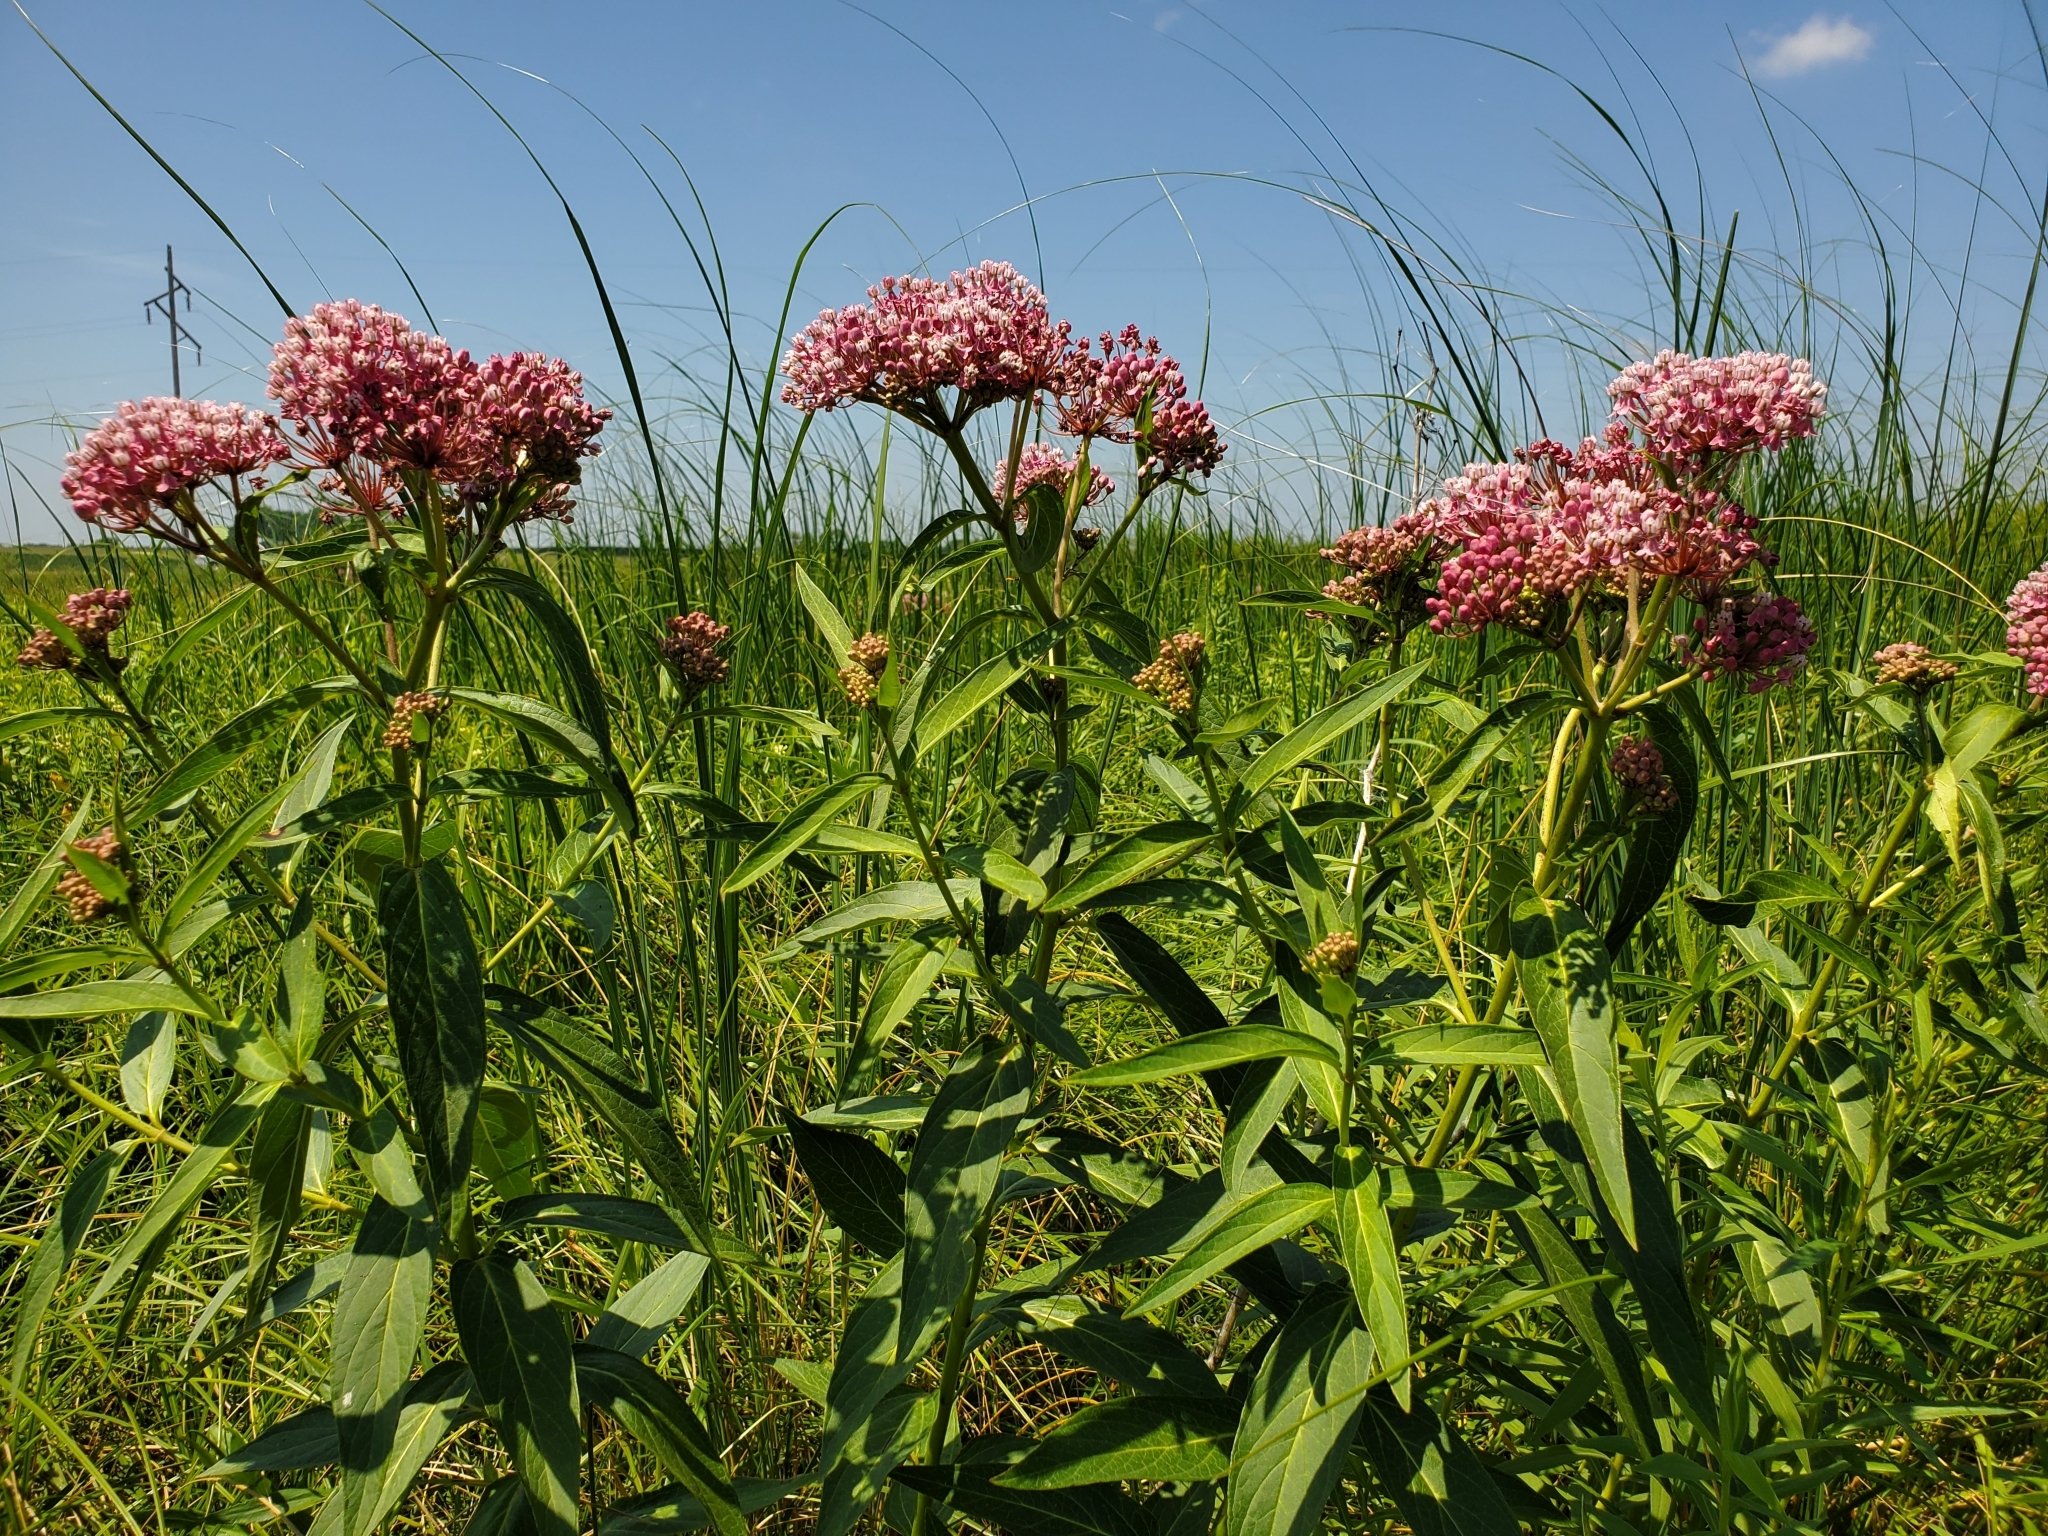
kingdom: Plantae
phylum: Tracheophyta
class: Magnoliopsida
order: Gentianales
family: Apocynaceae
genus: Asclepias
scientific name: Asclepias incarnata
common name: Swamp milkweed
